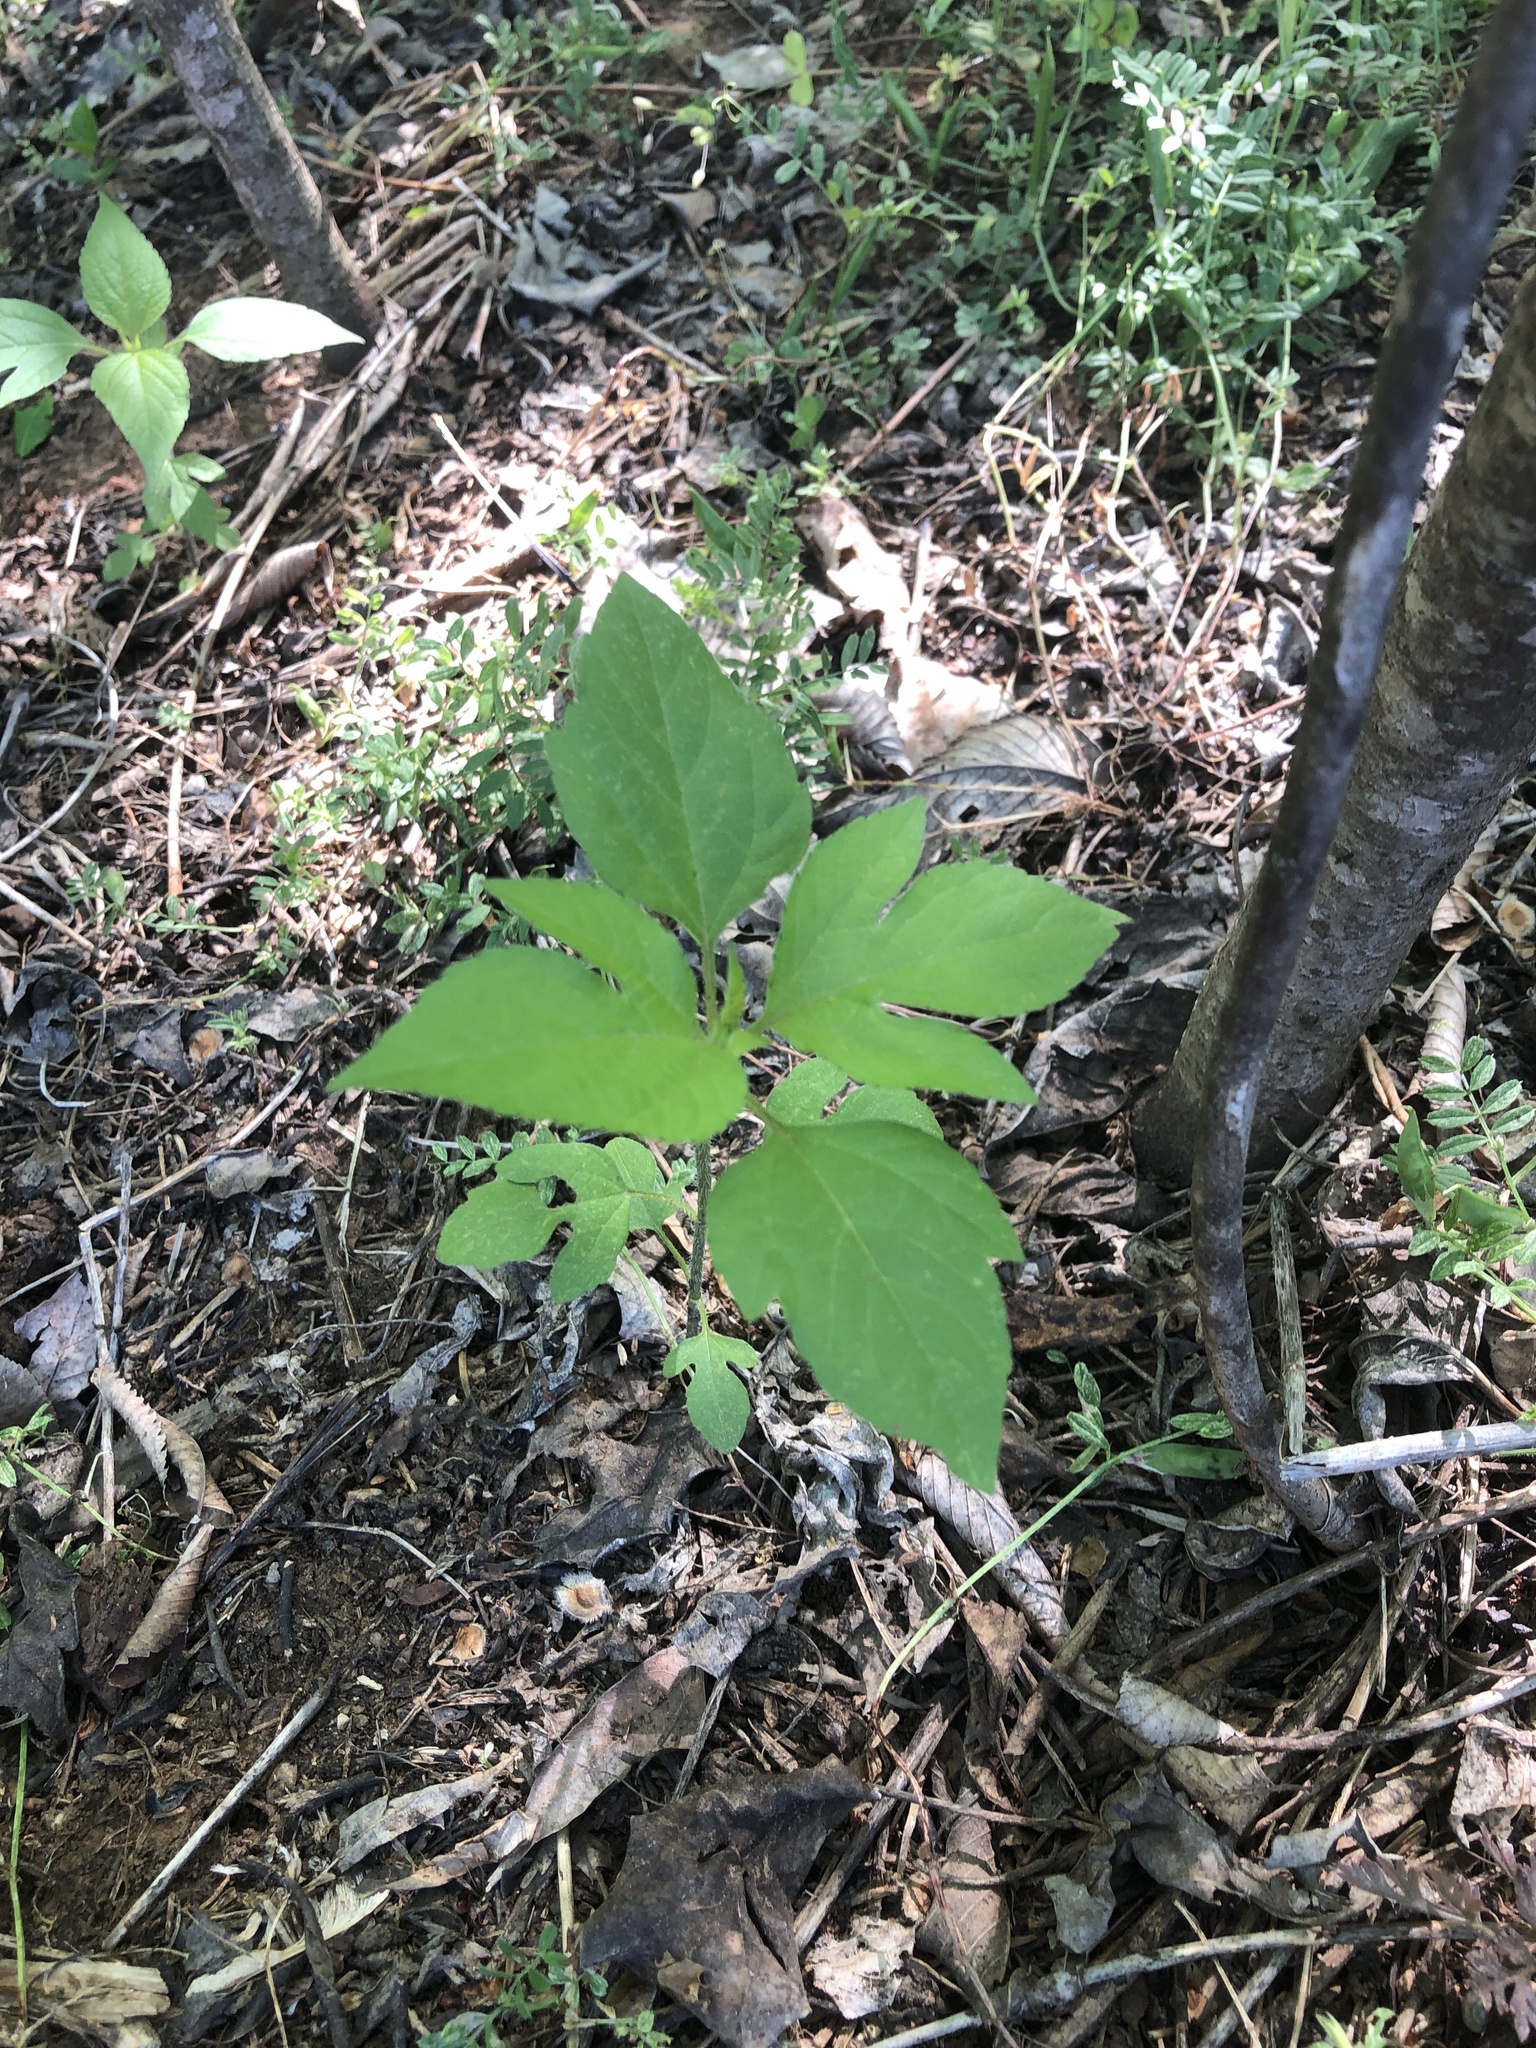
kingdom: Plantae
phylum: Tracheophyta
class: Magnoliopsida
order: Asterales
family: Asteraceae
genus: Ambrosia
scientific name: Ambrosia trifida
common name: Giant ragweed
